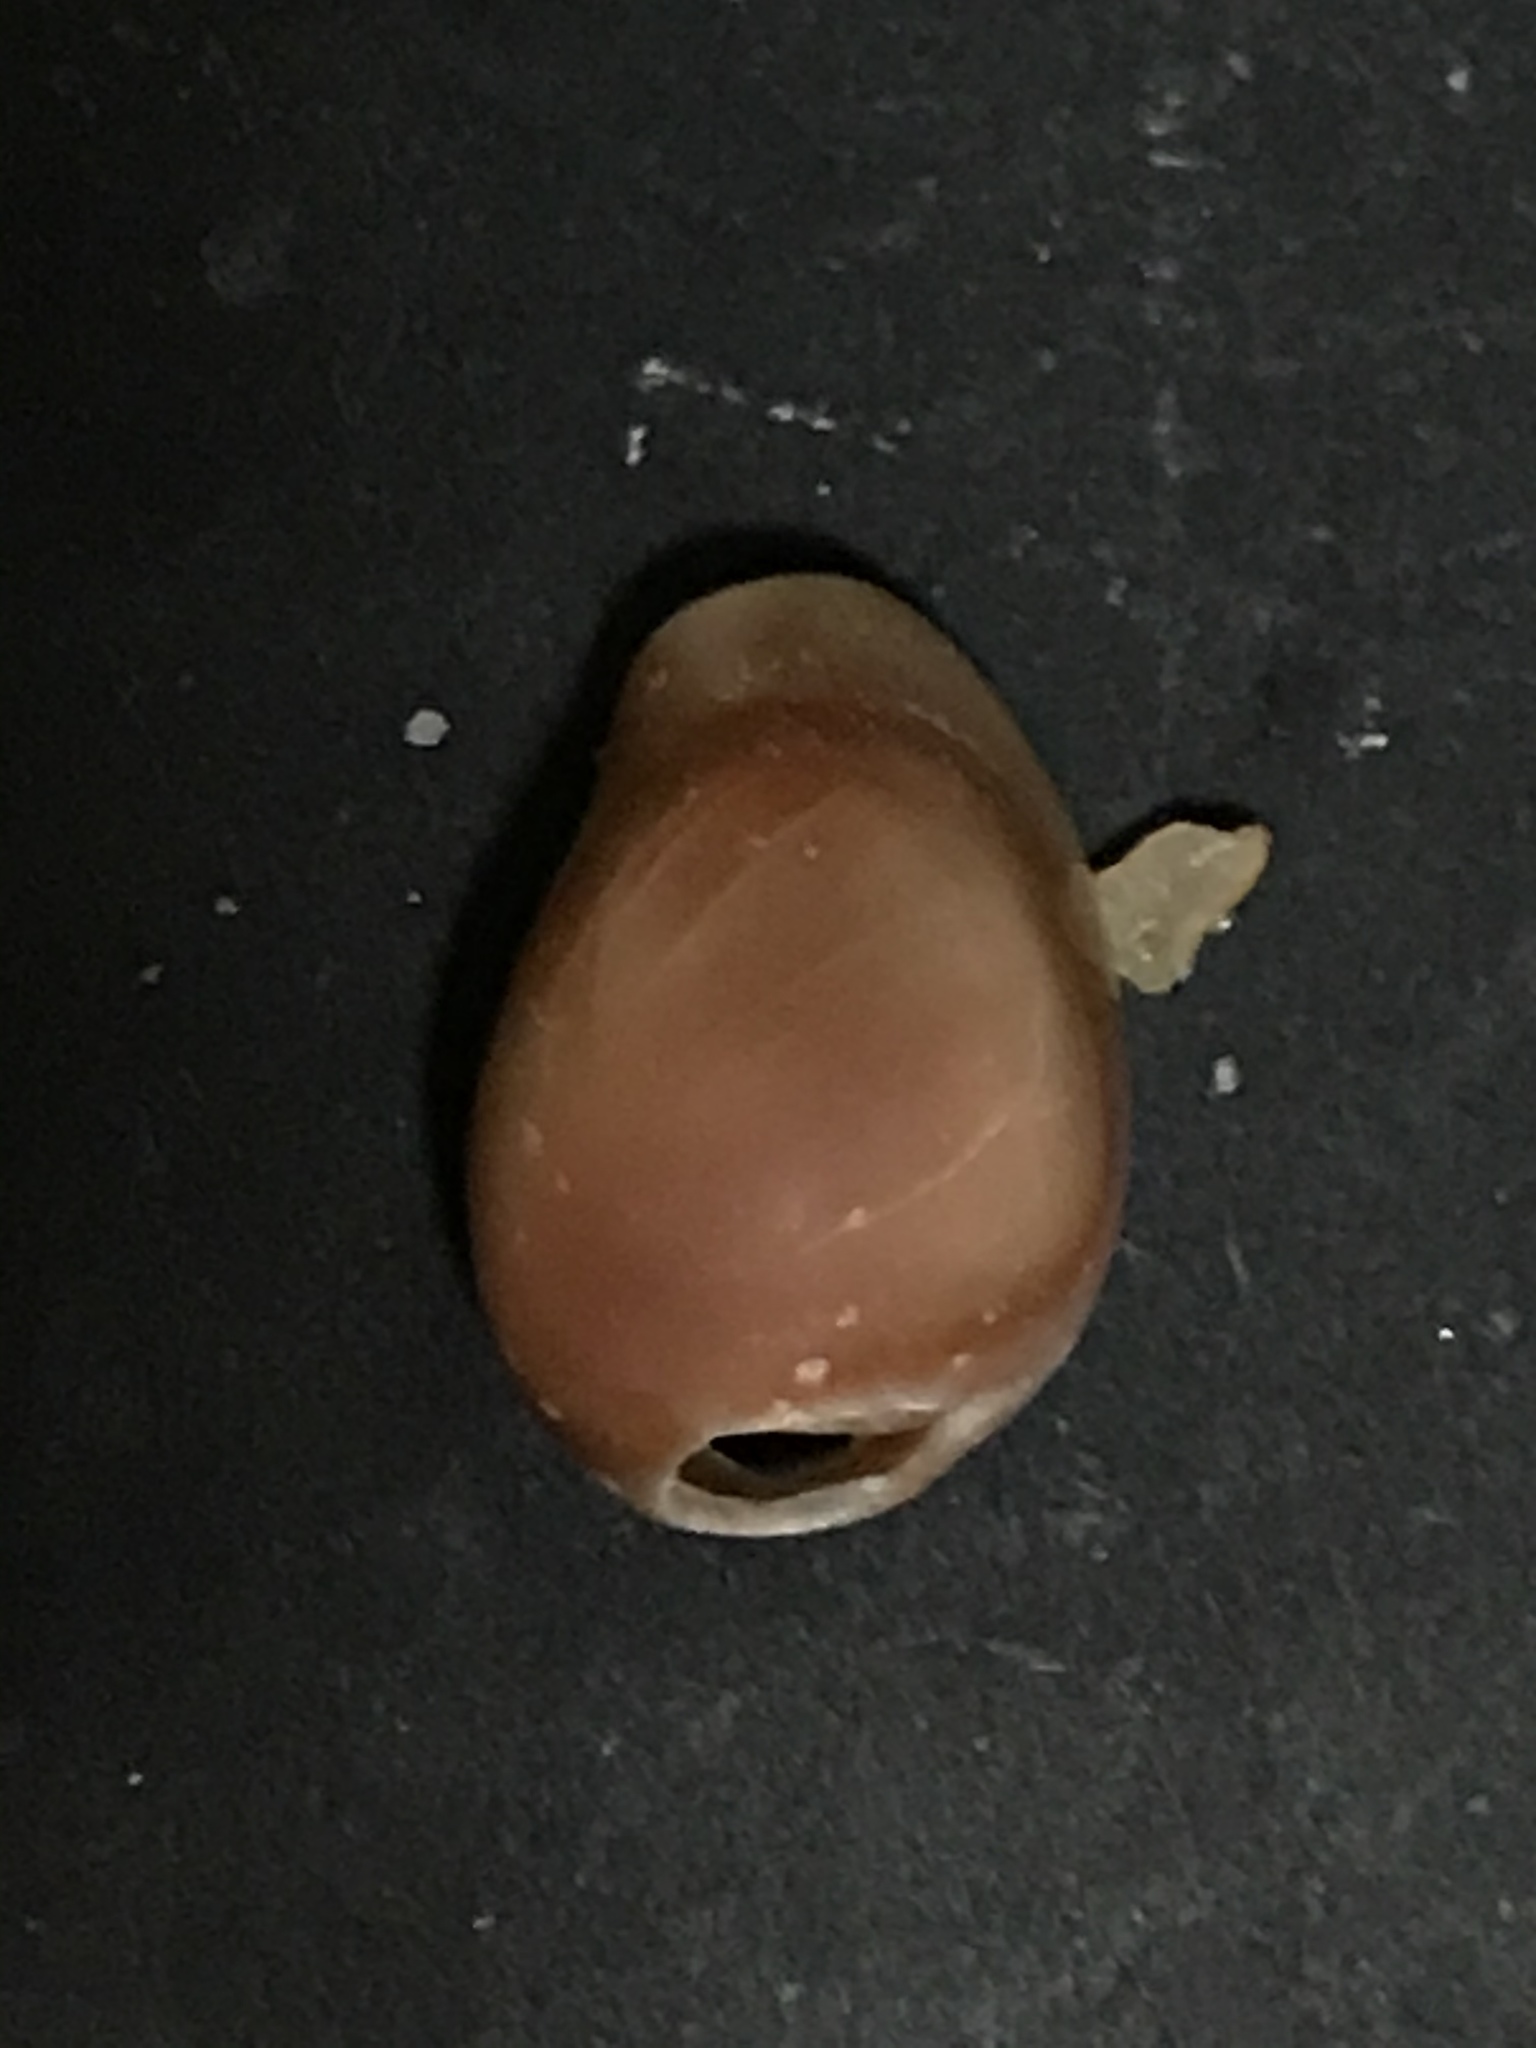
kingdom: Animalia
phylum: Mollusca
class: Gastropoda
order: Littorinimorpha
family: Eratoidae
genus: Hespererato
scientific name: Hespererato vitellina
